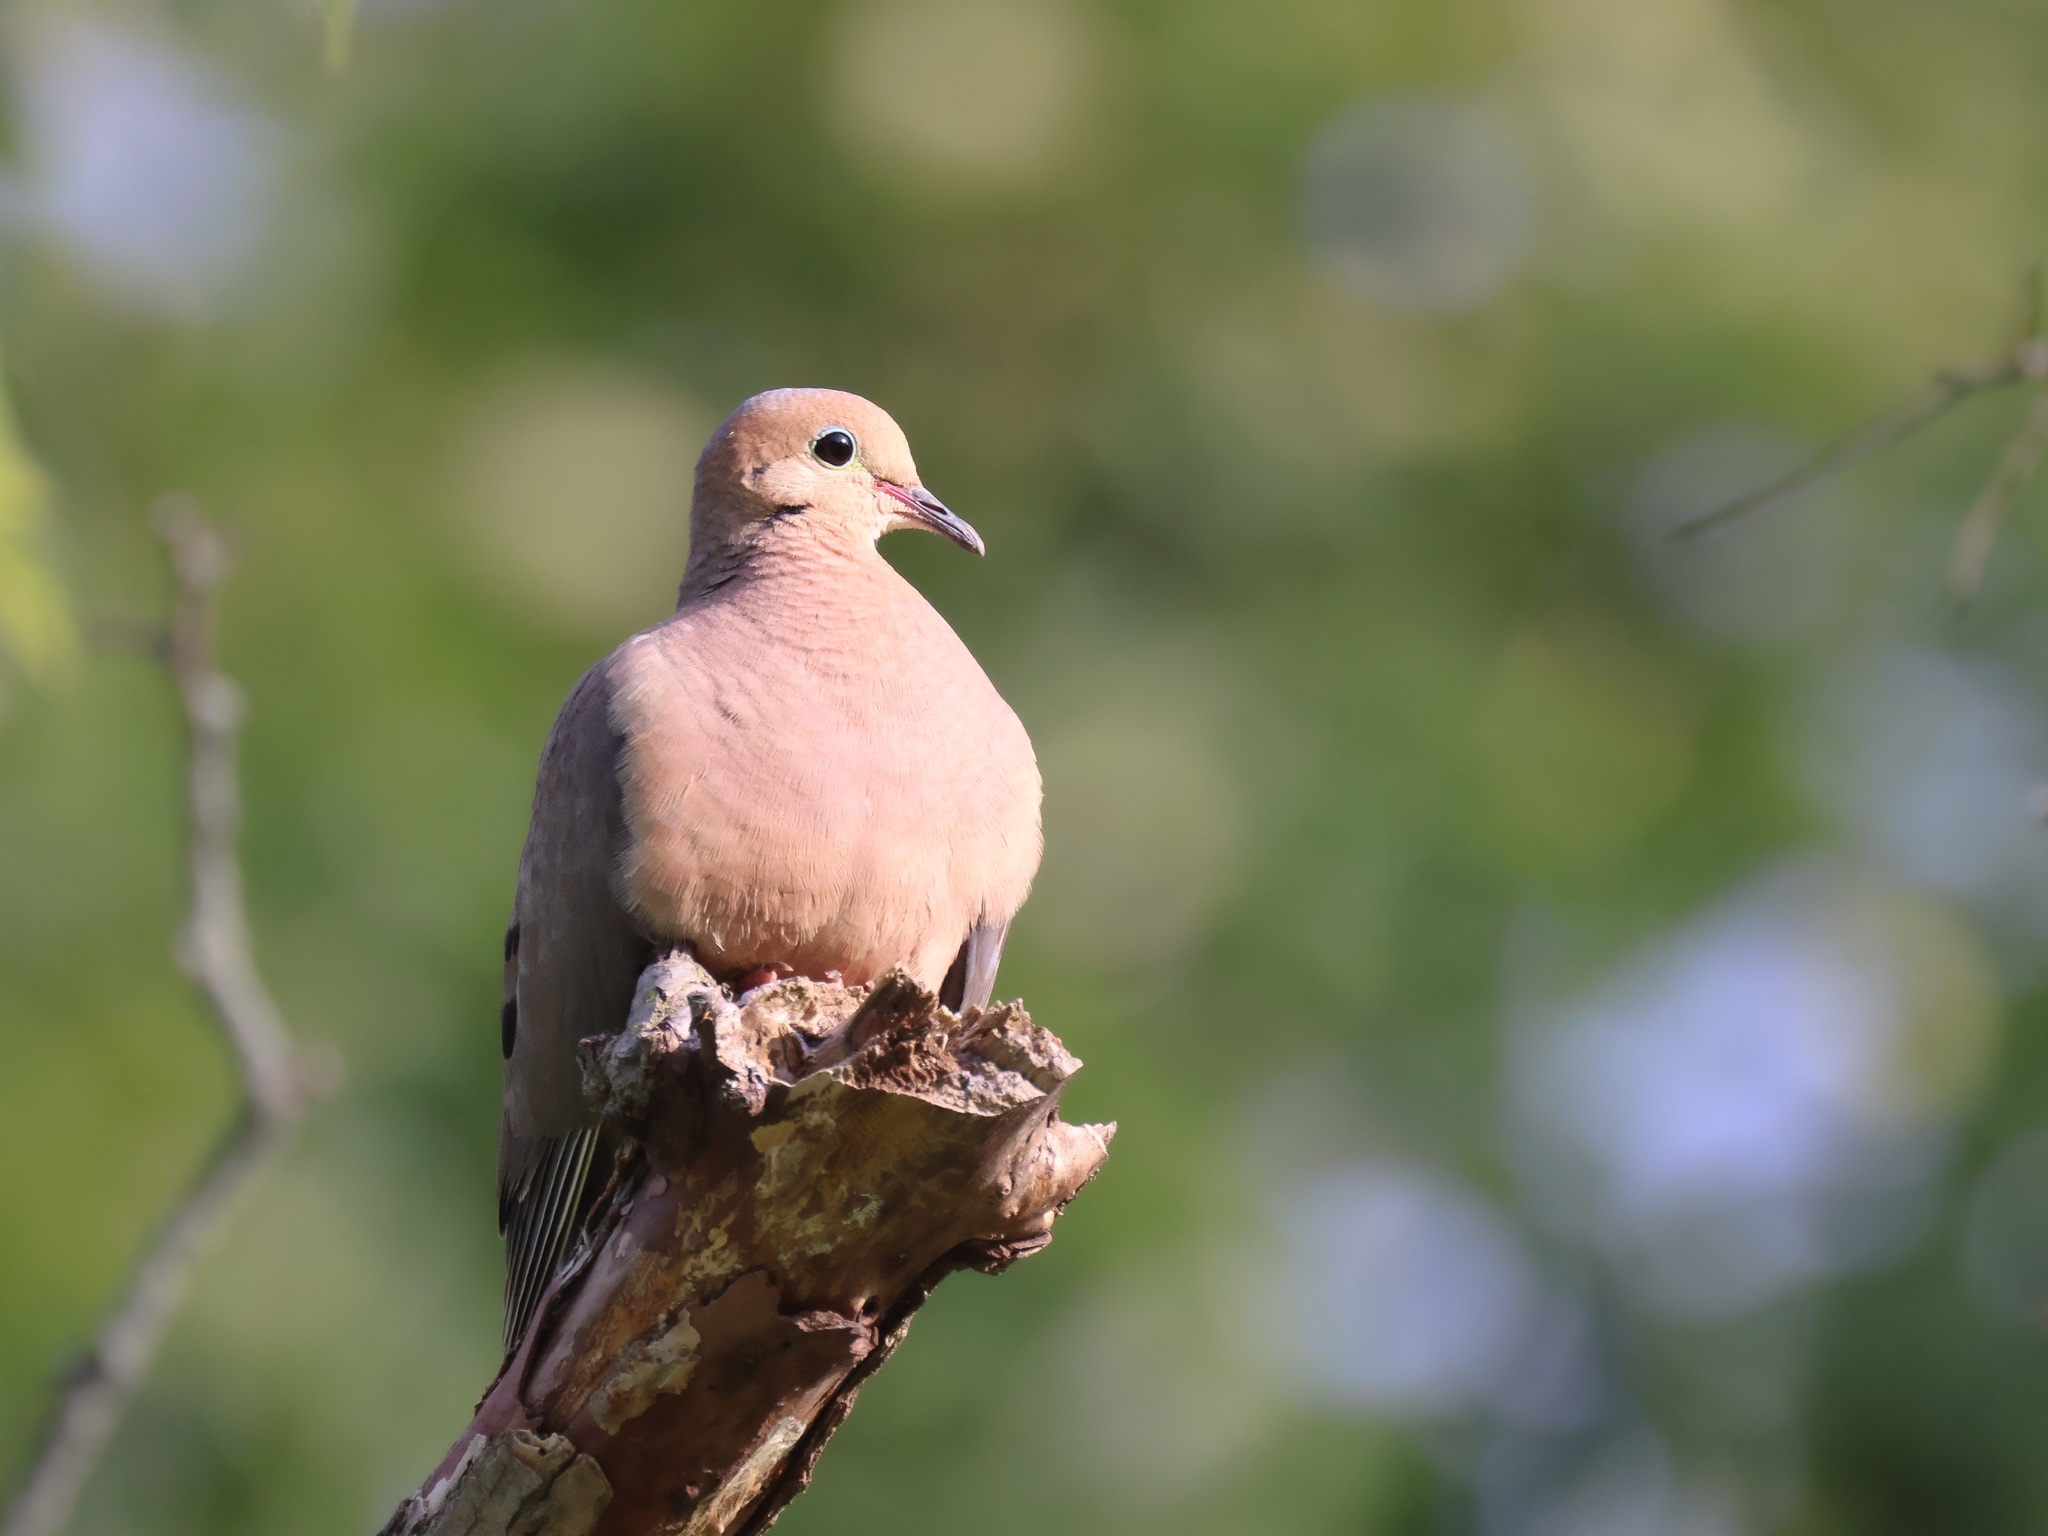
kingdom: Animalia
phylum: Chordata
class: Aves
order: Columbiformes
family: Columbidae
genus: Zenaida
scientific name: Zenaida macroura
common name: Mourning dove
